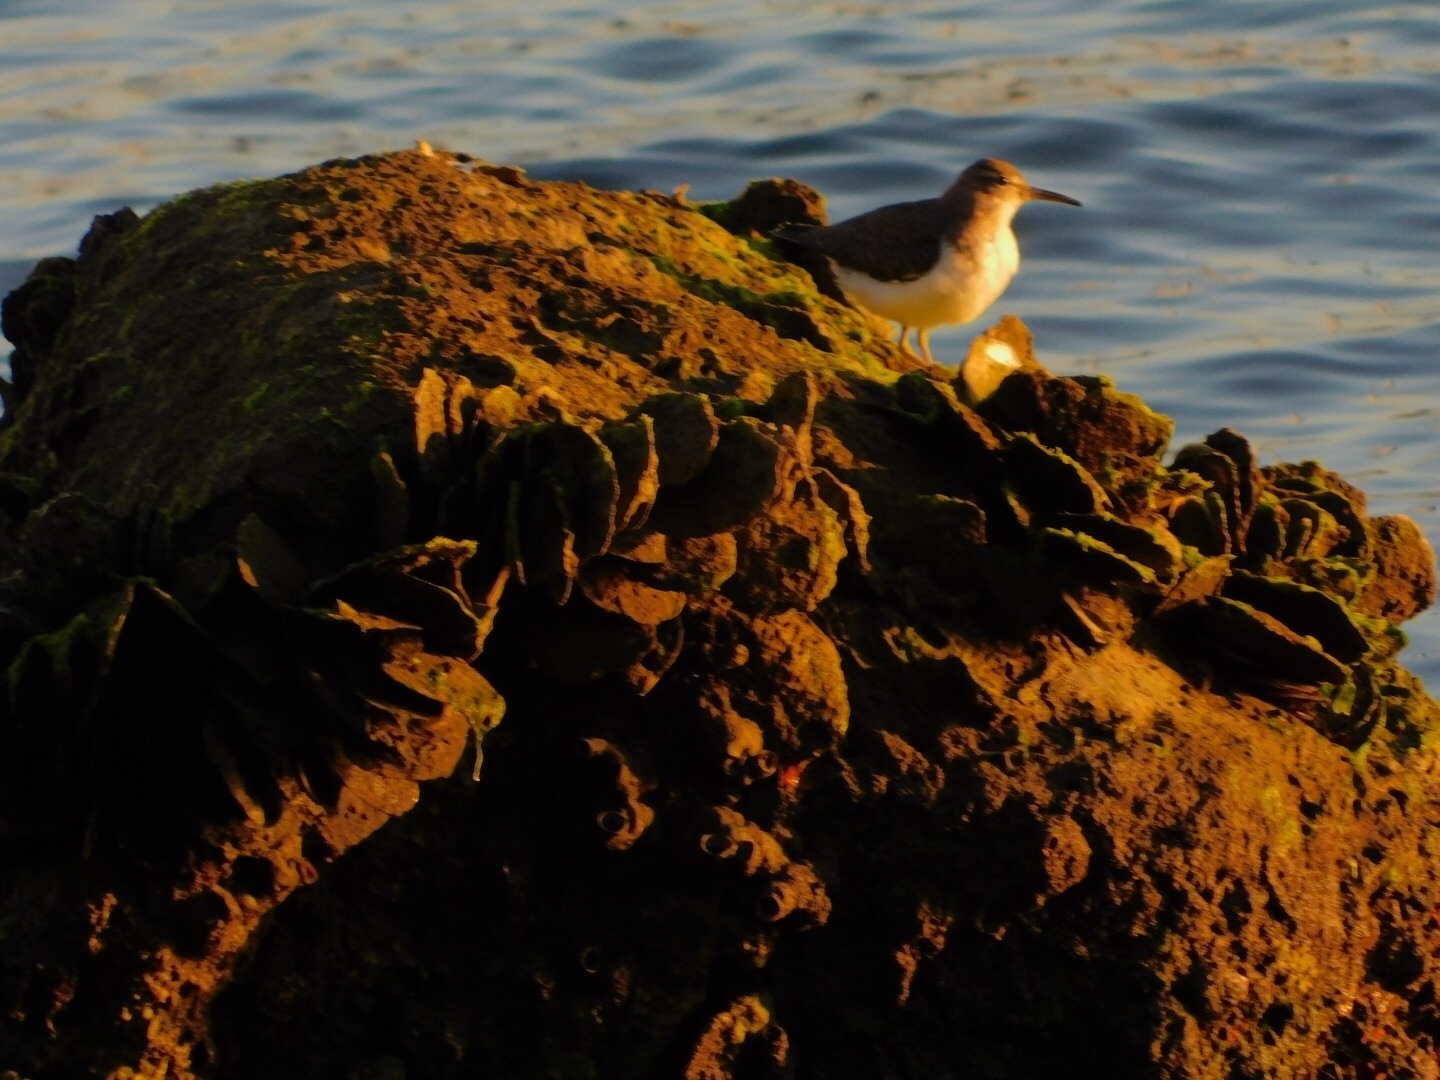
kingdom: Animalia
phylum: Chordata
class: Aves
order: Charadriiformes
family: Scolopacidae
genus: Actitis
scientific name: Actitis macularius
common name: Spotted sandpiper
